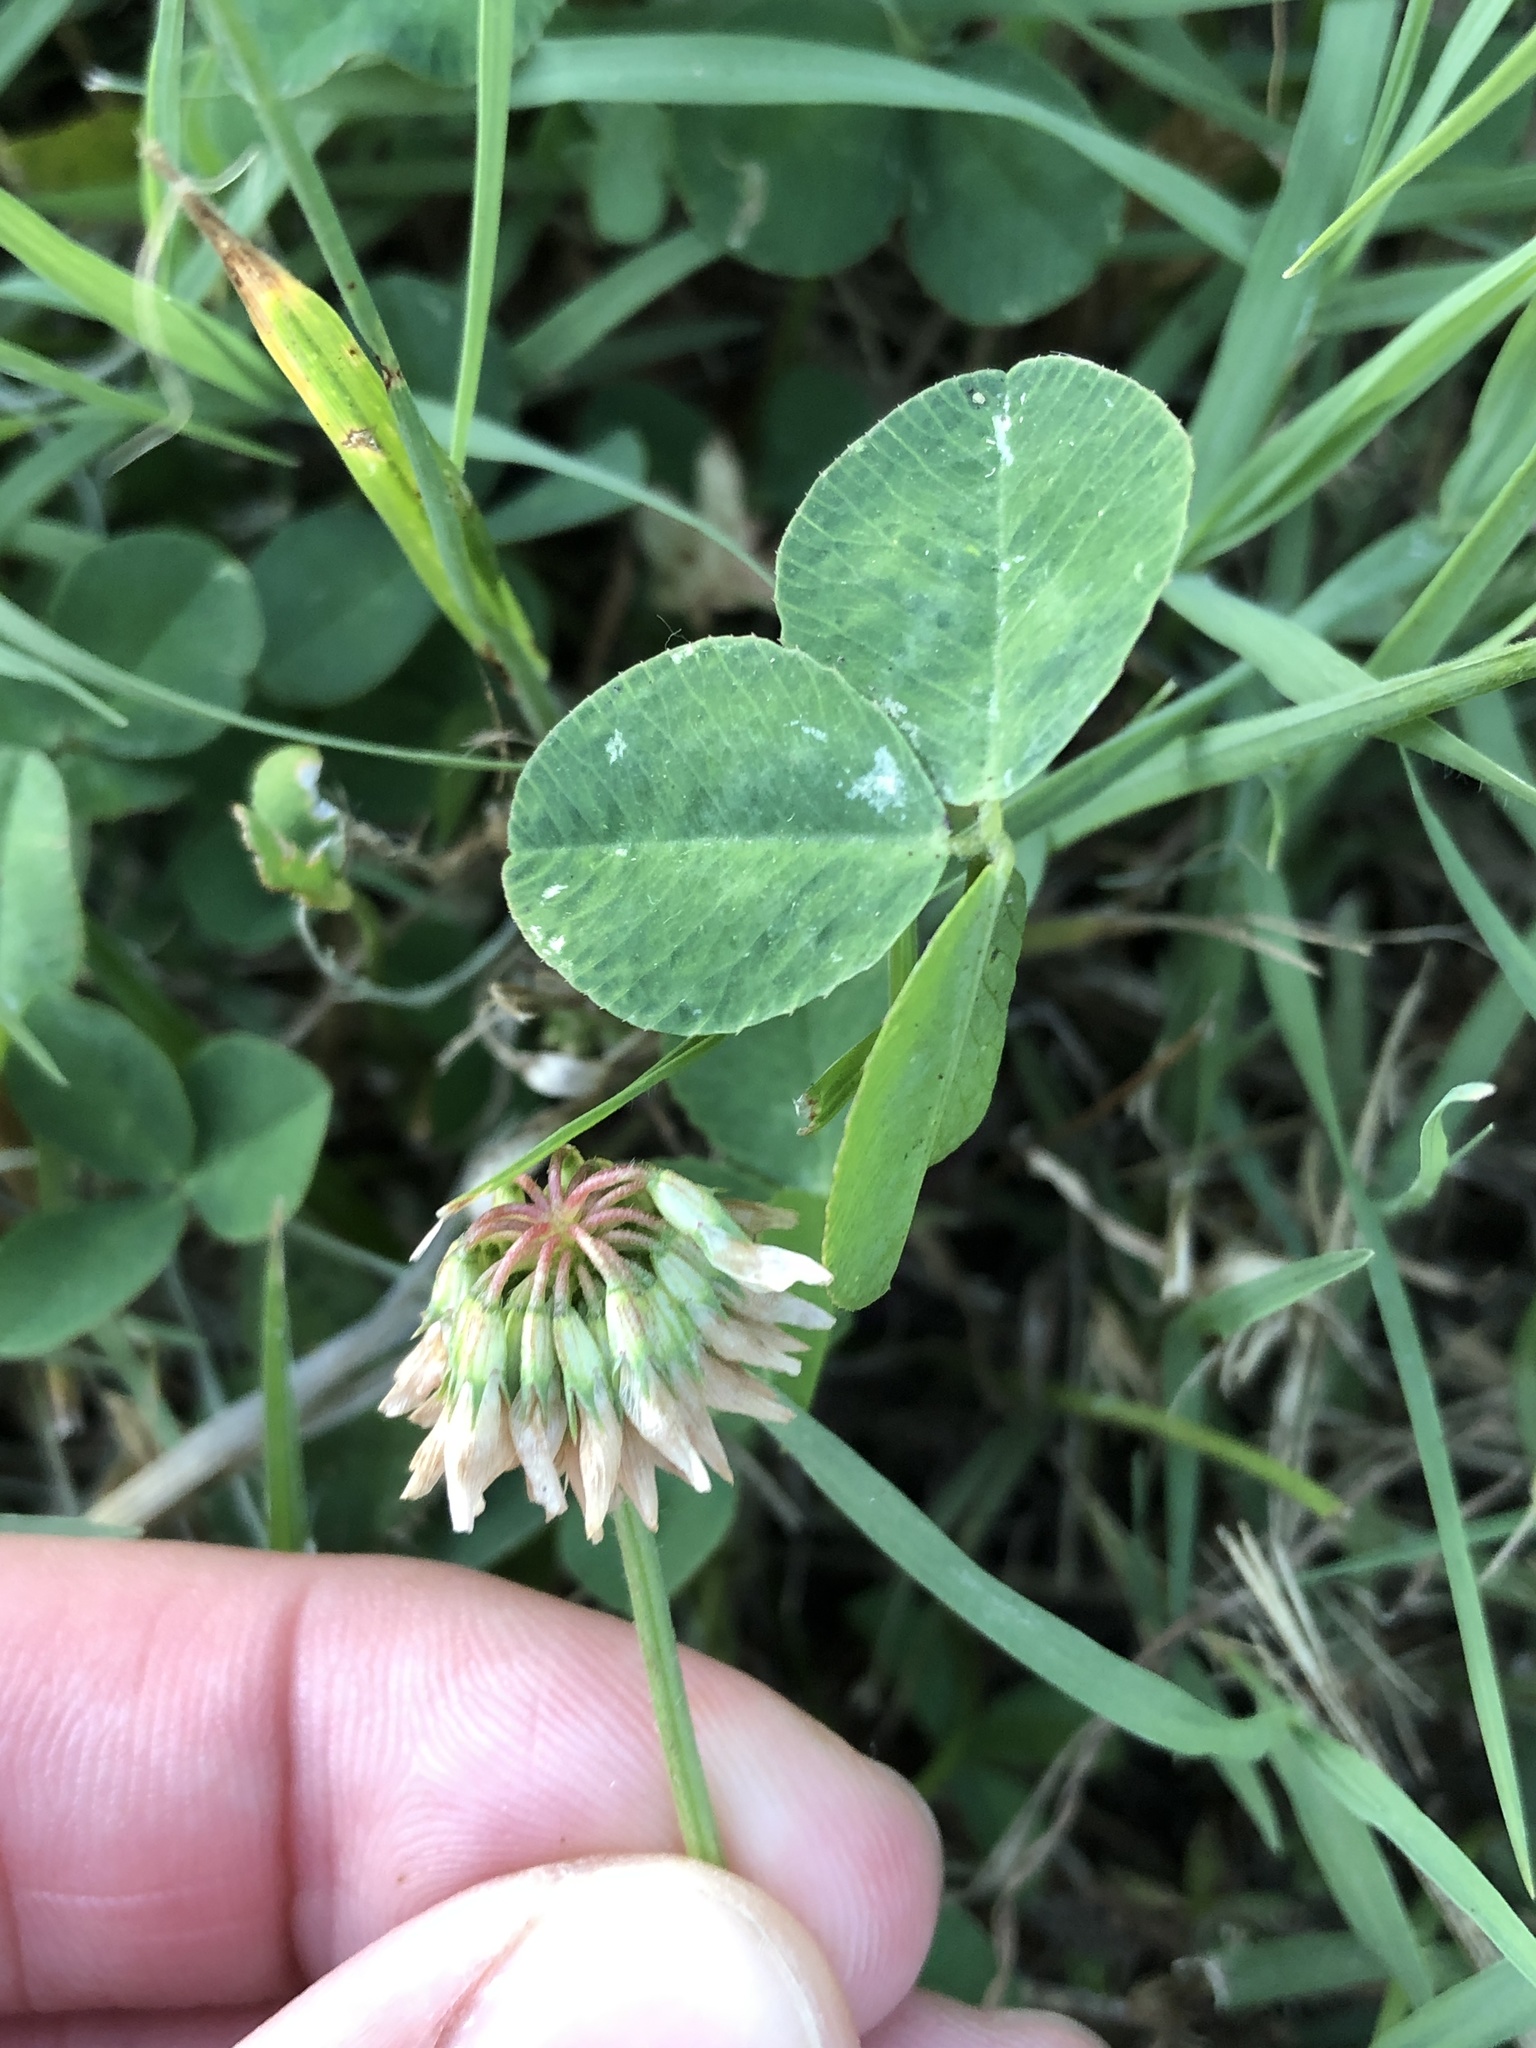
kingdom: Plantae
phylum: Tracheophyta
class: Magnoliopsida
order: Fabales
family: Fabaceae
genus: Trifolium
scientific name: Trifolium repens
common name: White clover
